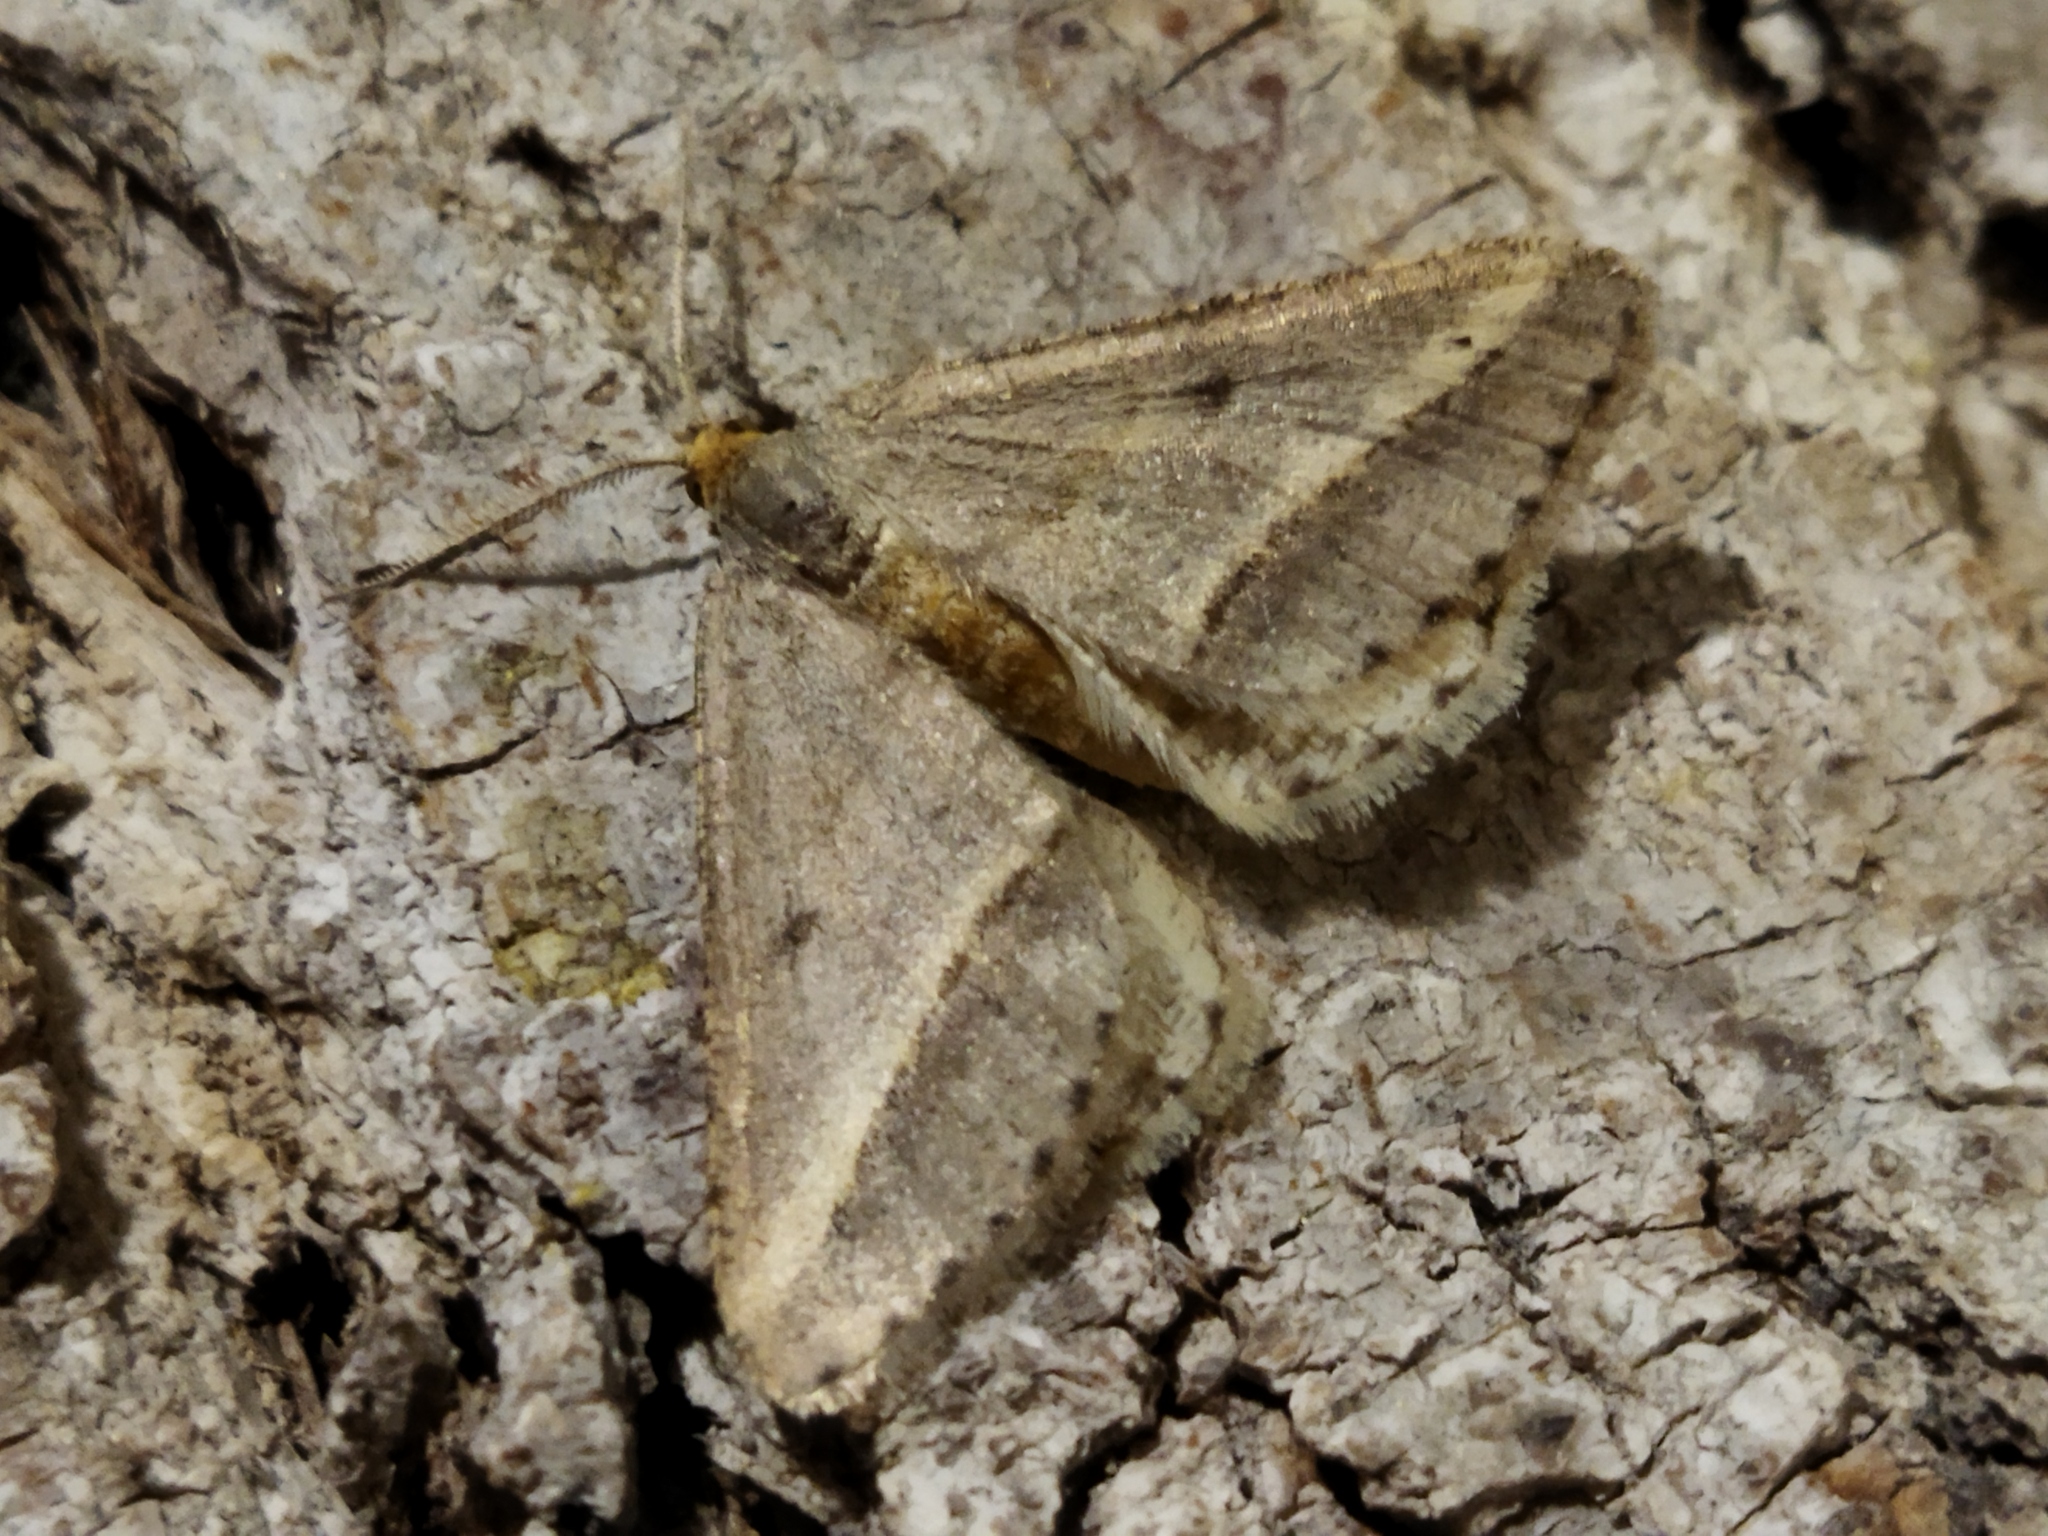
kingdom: Animalia
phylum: Arthropoda
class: Insecta
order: Lepidoptera
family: Geometridae
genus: Tephrina
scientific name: Tephrina arenacearia
